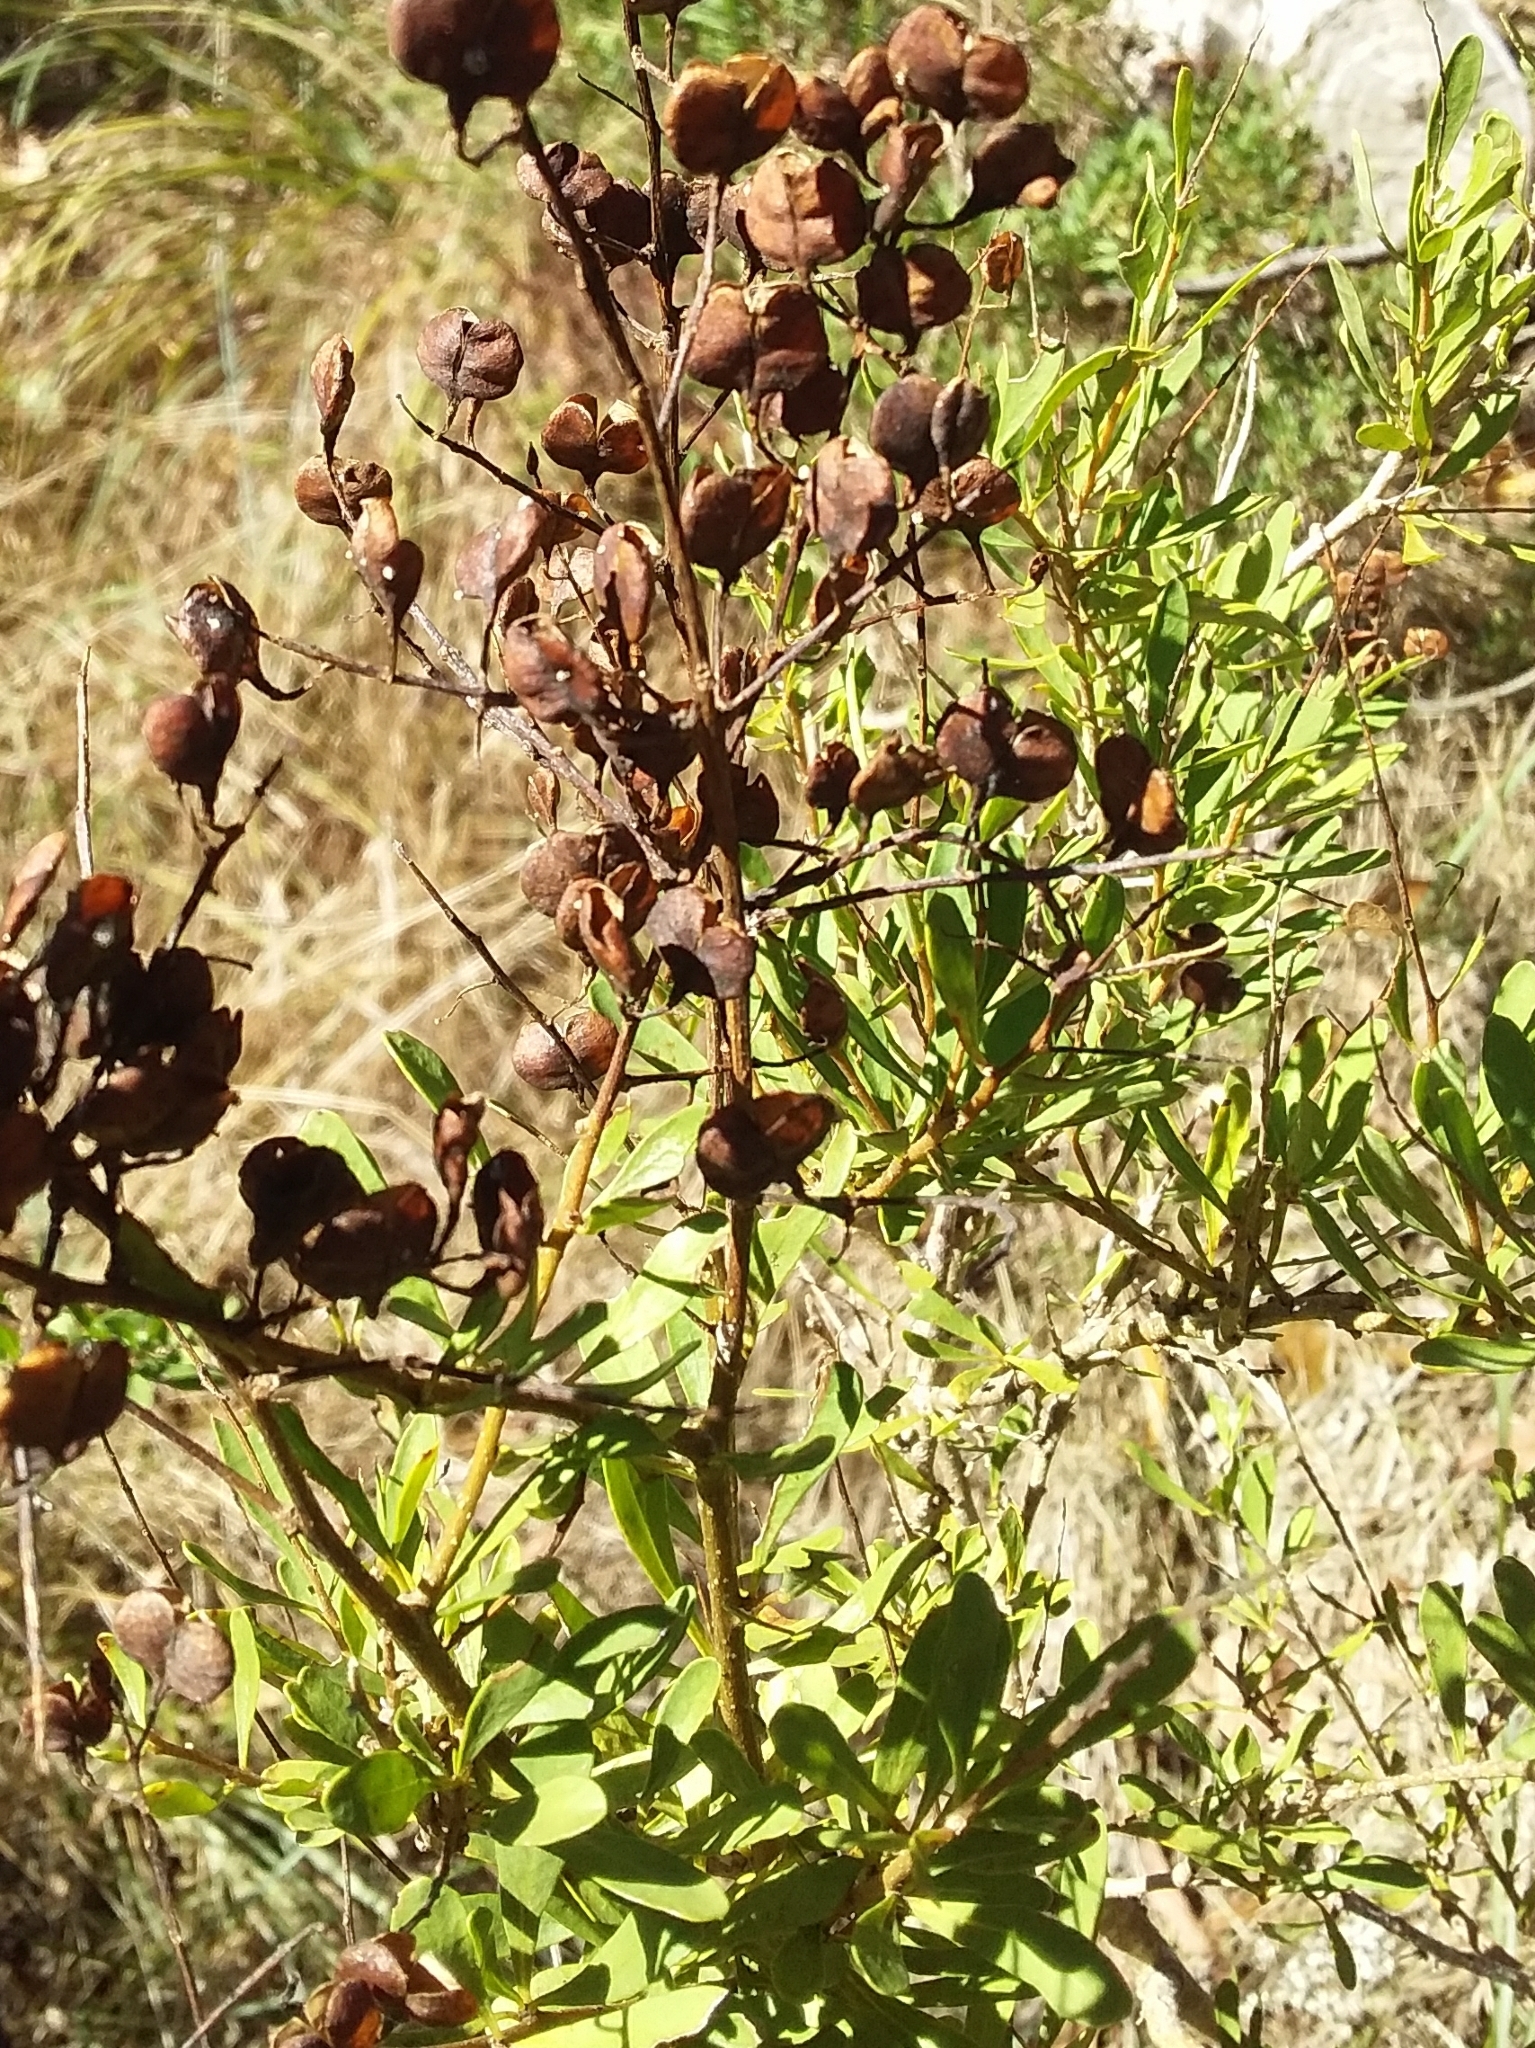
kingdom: Plantae
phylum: Tracheophyta
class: Magnoliopsida
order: Apiales
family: Pittosporaceae
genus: Bursaria
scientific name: Bursaria spinosa
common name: Australian blackthorn
